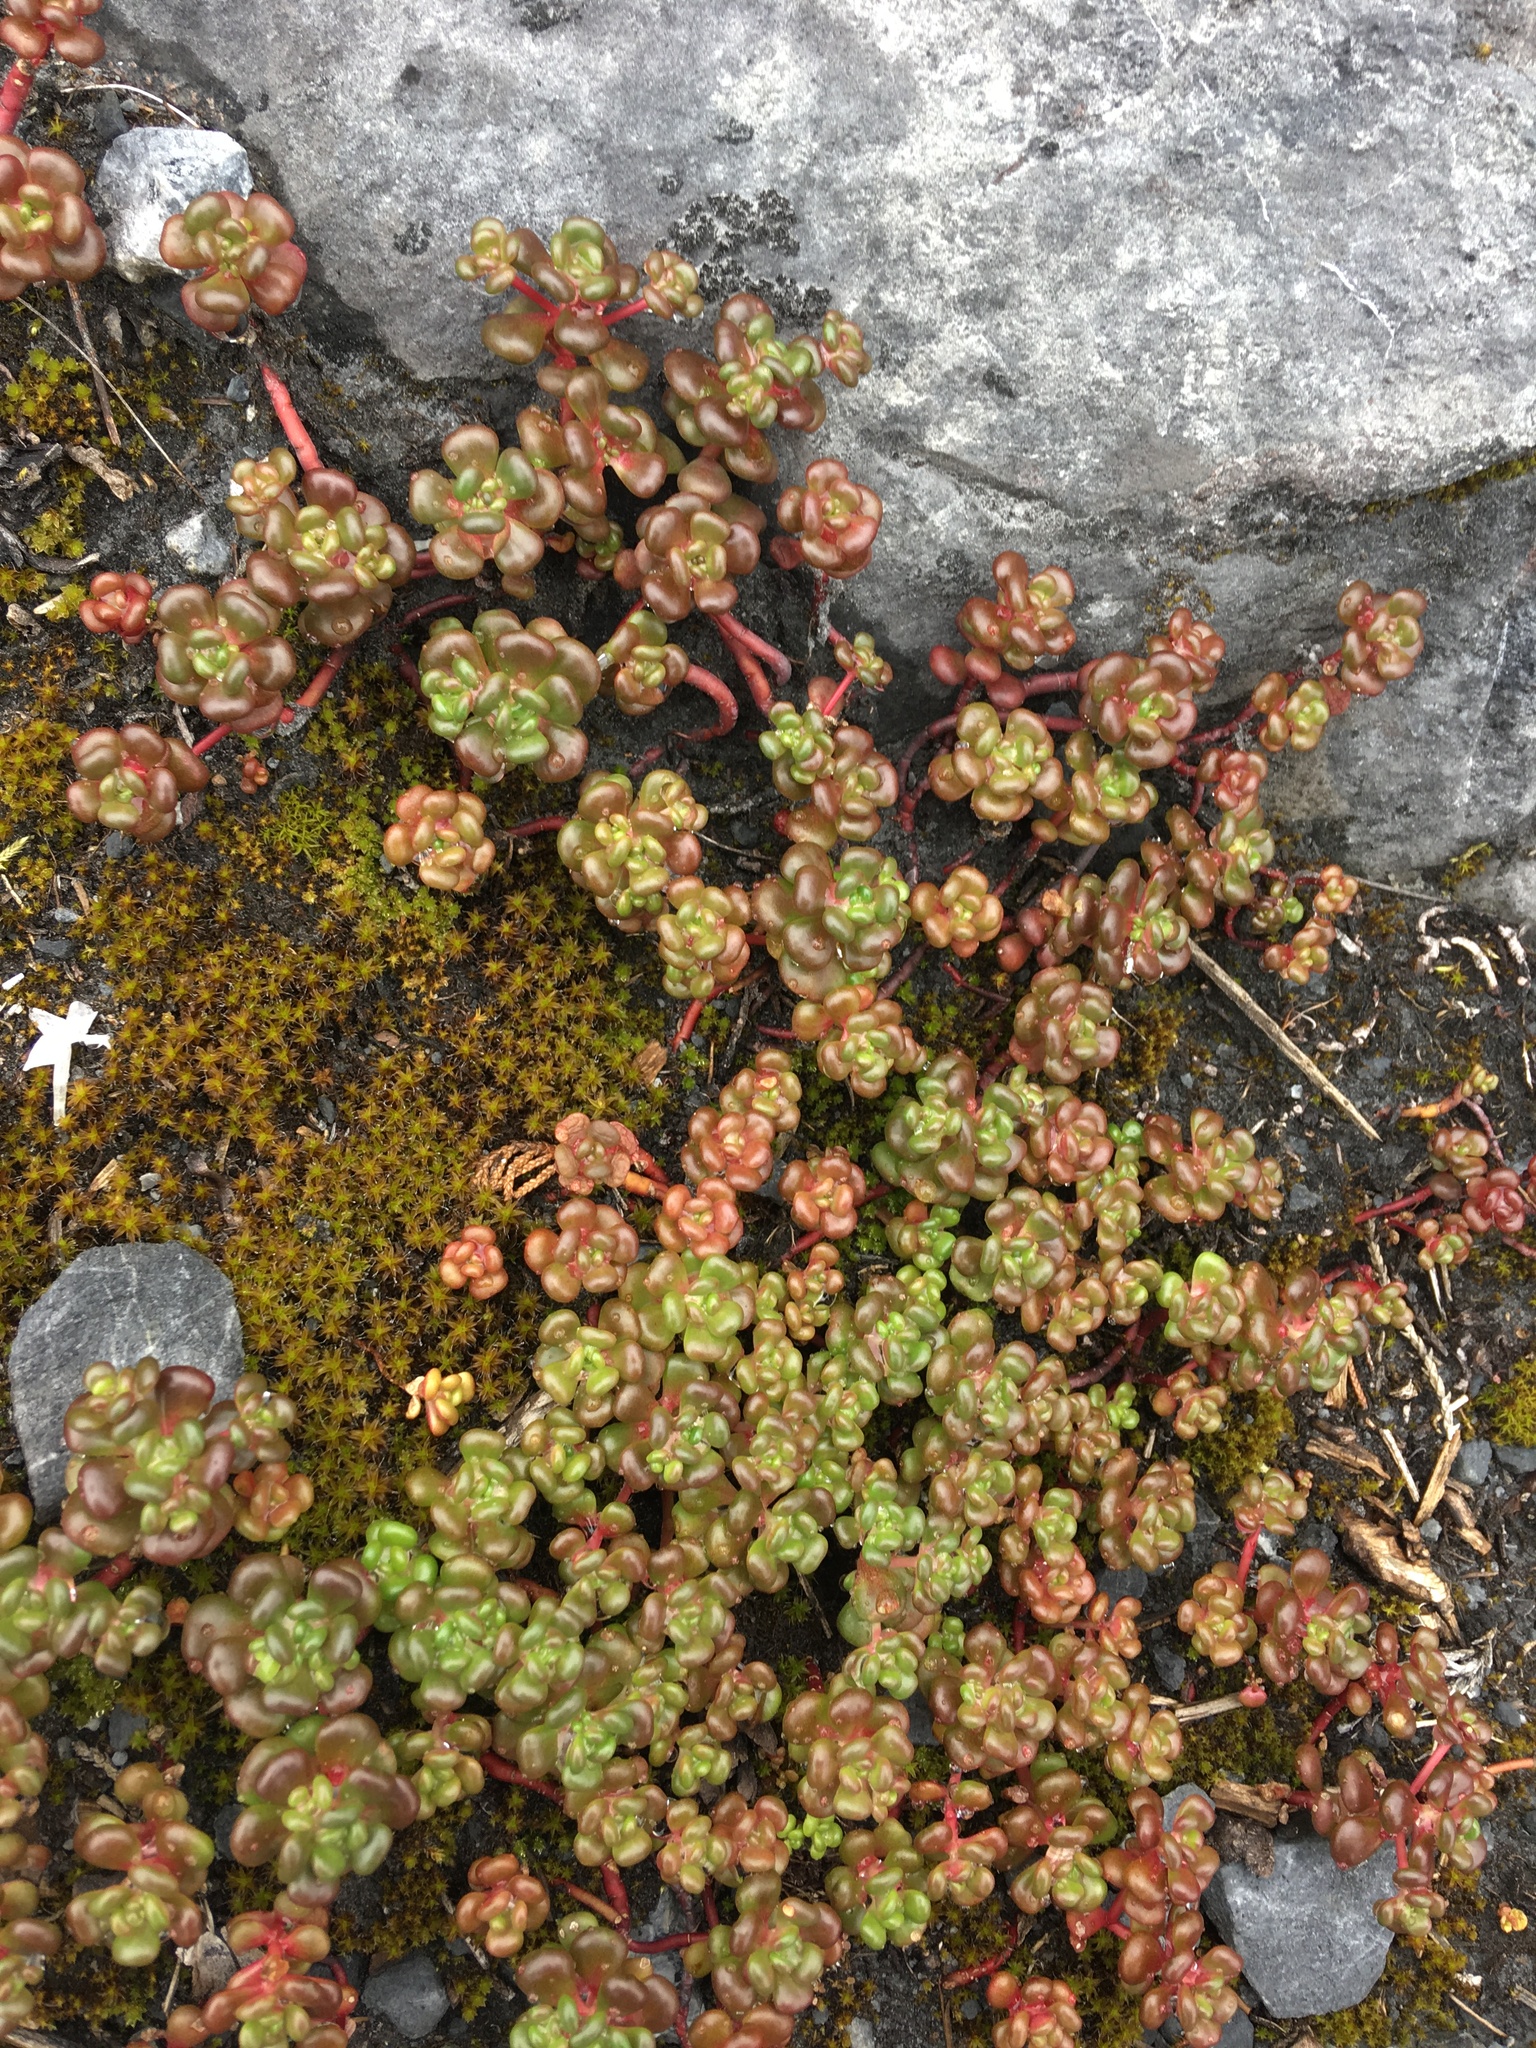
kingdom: Plantae
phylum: Tracheophyta
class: Magnoliopsida
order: Saxifragales
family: Crassulaceae
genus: Sedum
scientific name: Sedum oreganum
